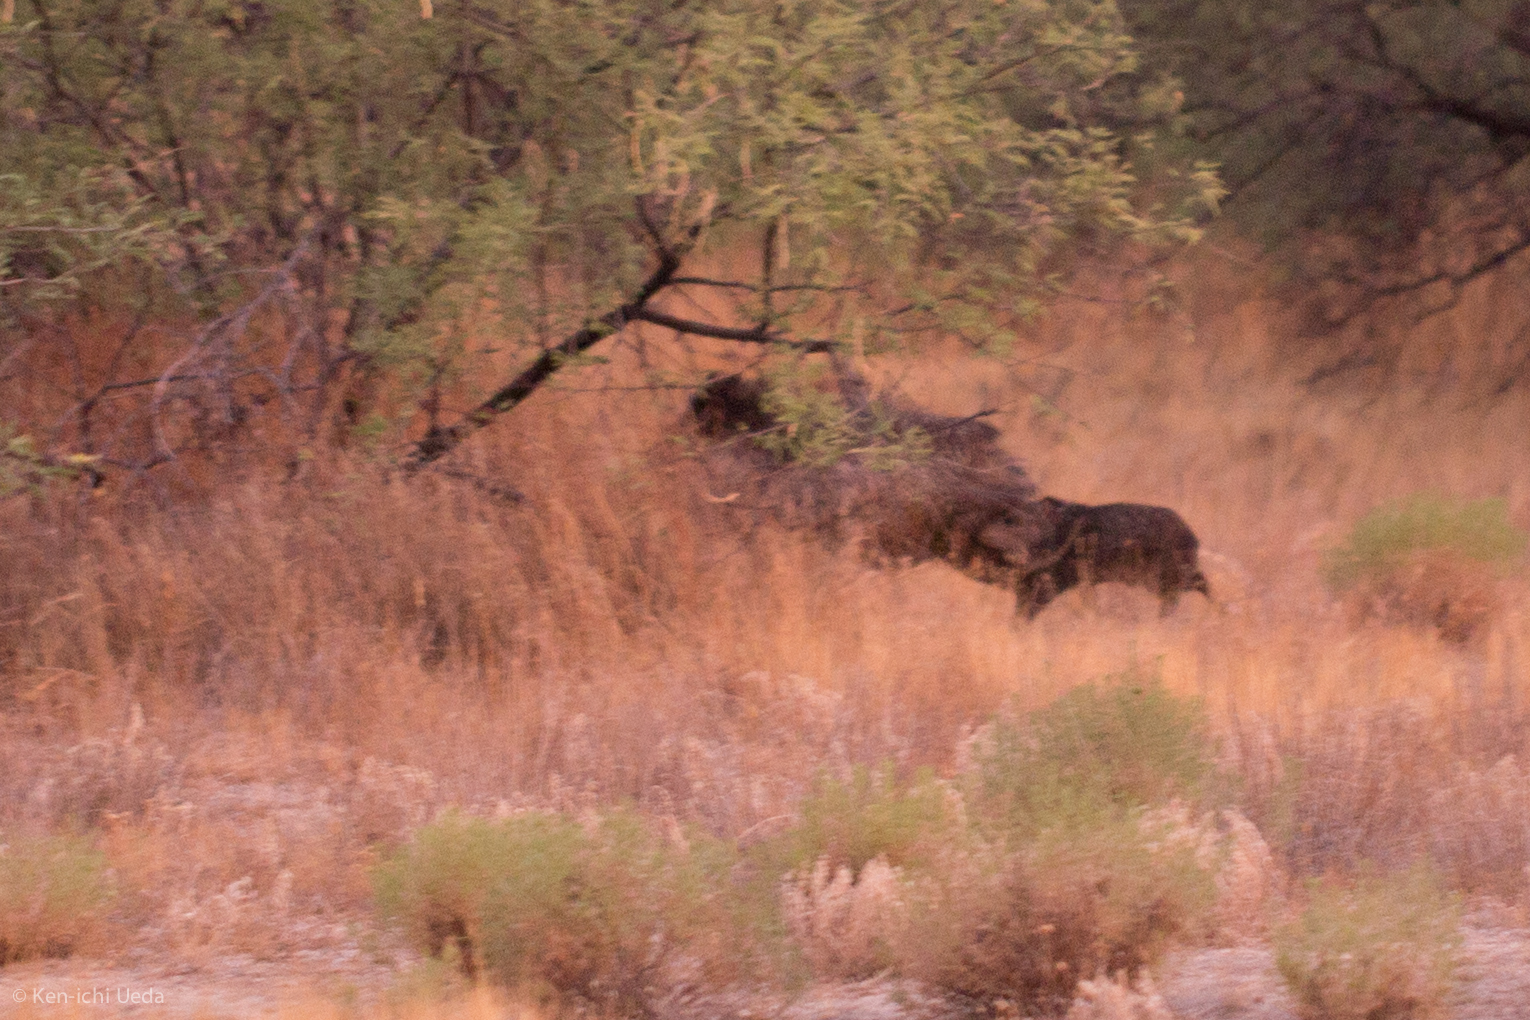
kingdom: Animalia
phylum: Chordata
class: Mammalia
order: Artiodactyla
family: Tayassuidae
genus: Pecari
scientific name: Pecari tajacu
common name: Collared peccary
